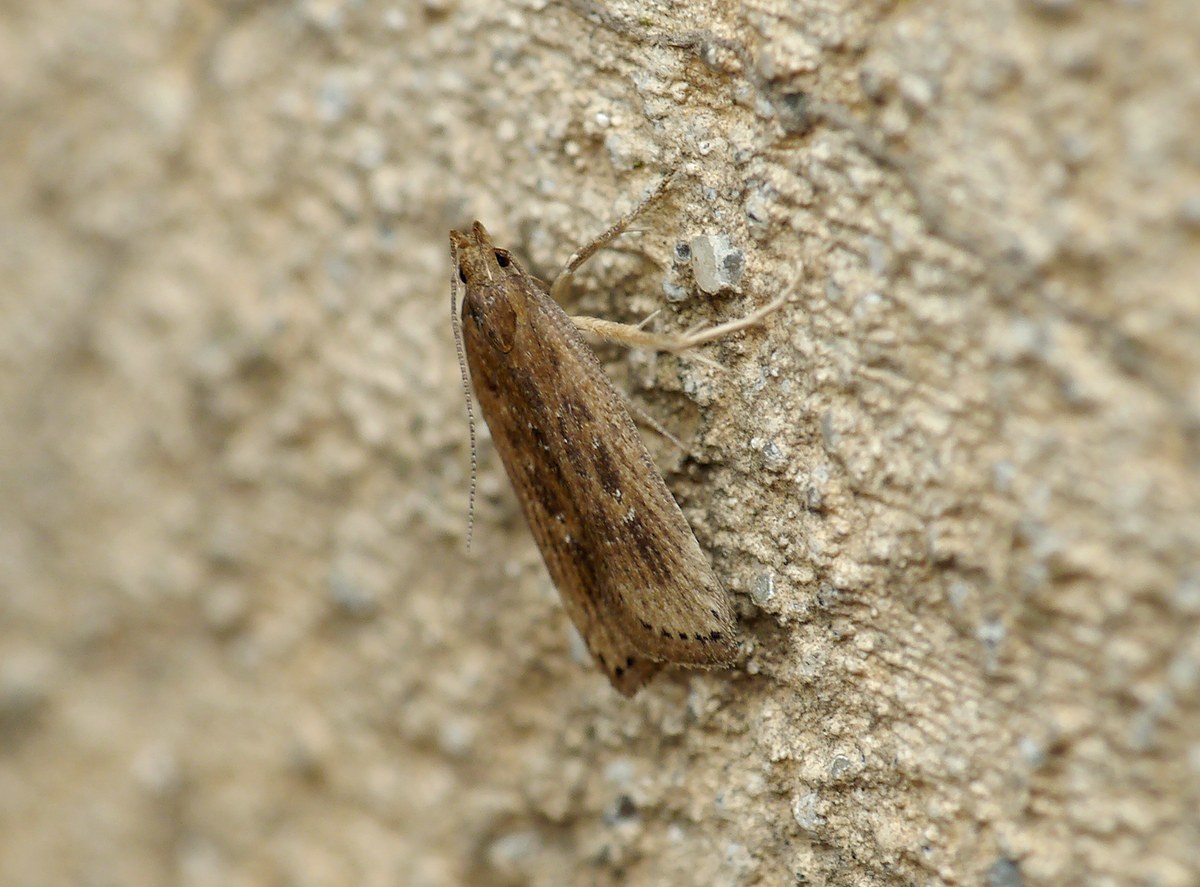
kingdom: Animalia
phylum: Arthropoda
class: Insecta
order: Lepidoptera
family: Gelechiidae
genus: Helcystogramma
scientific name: Helcystogramma triannulella
